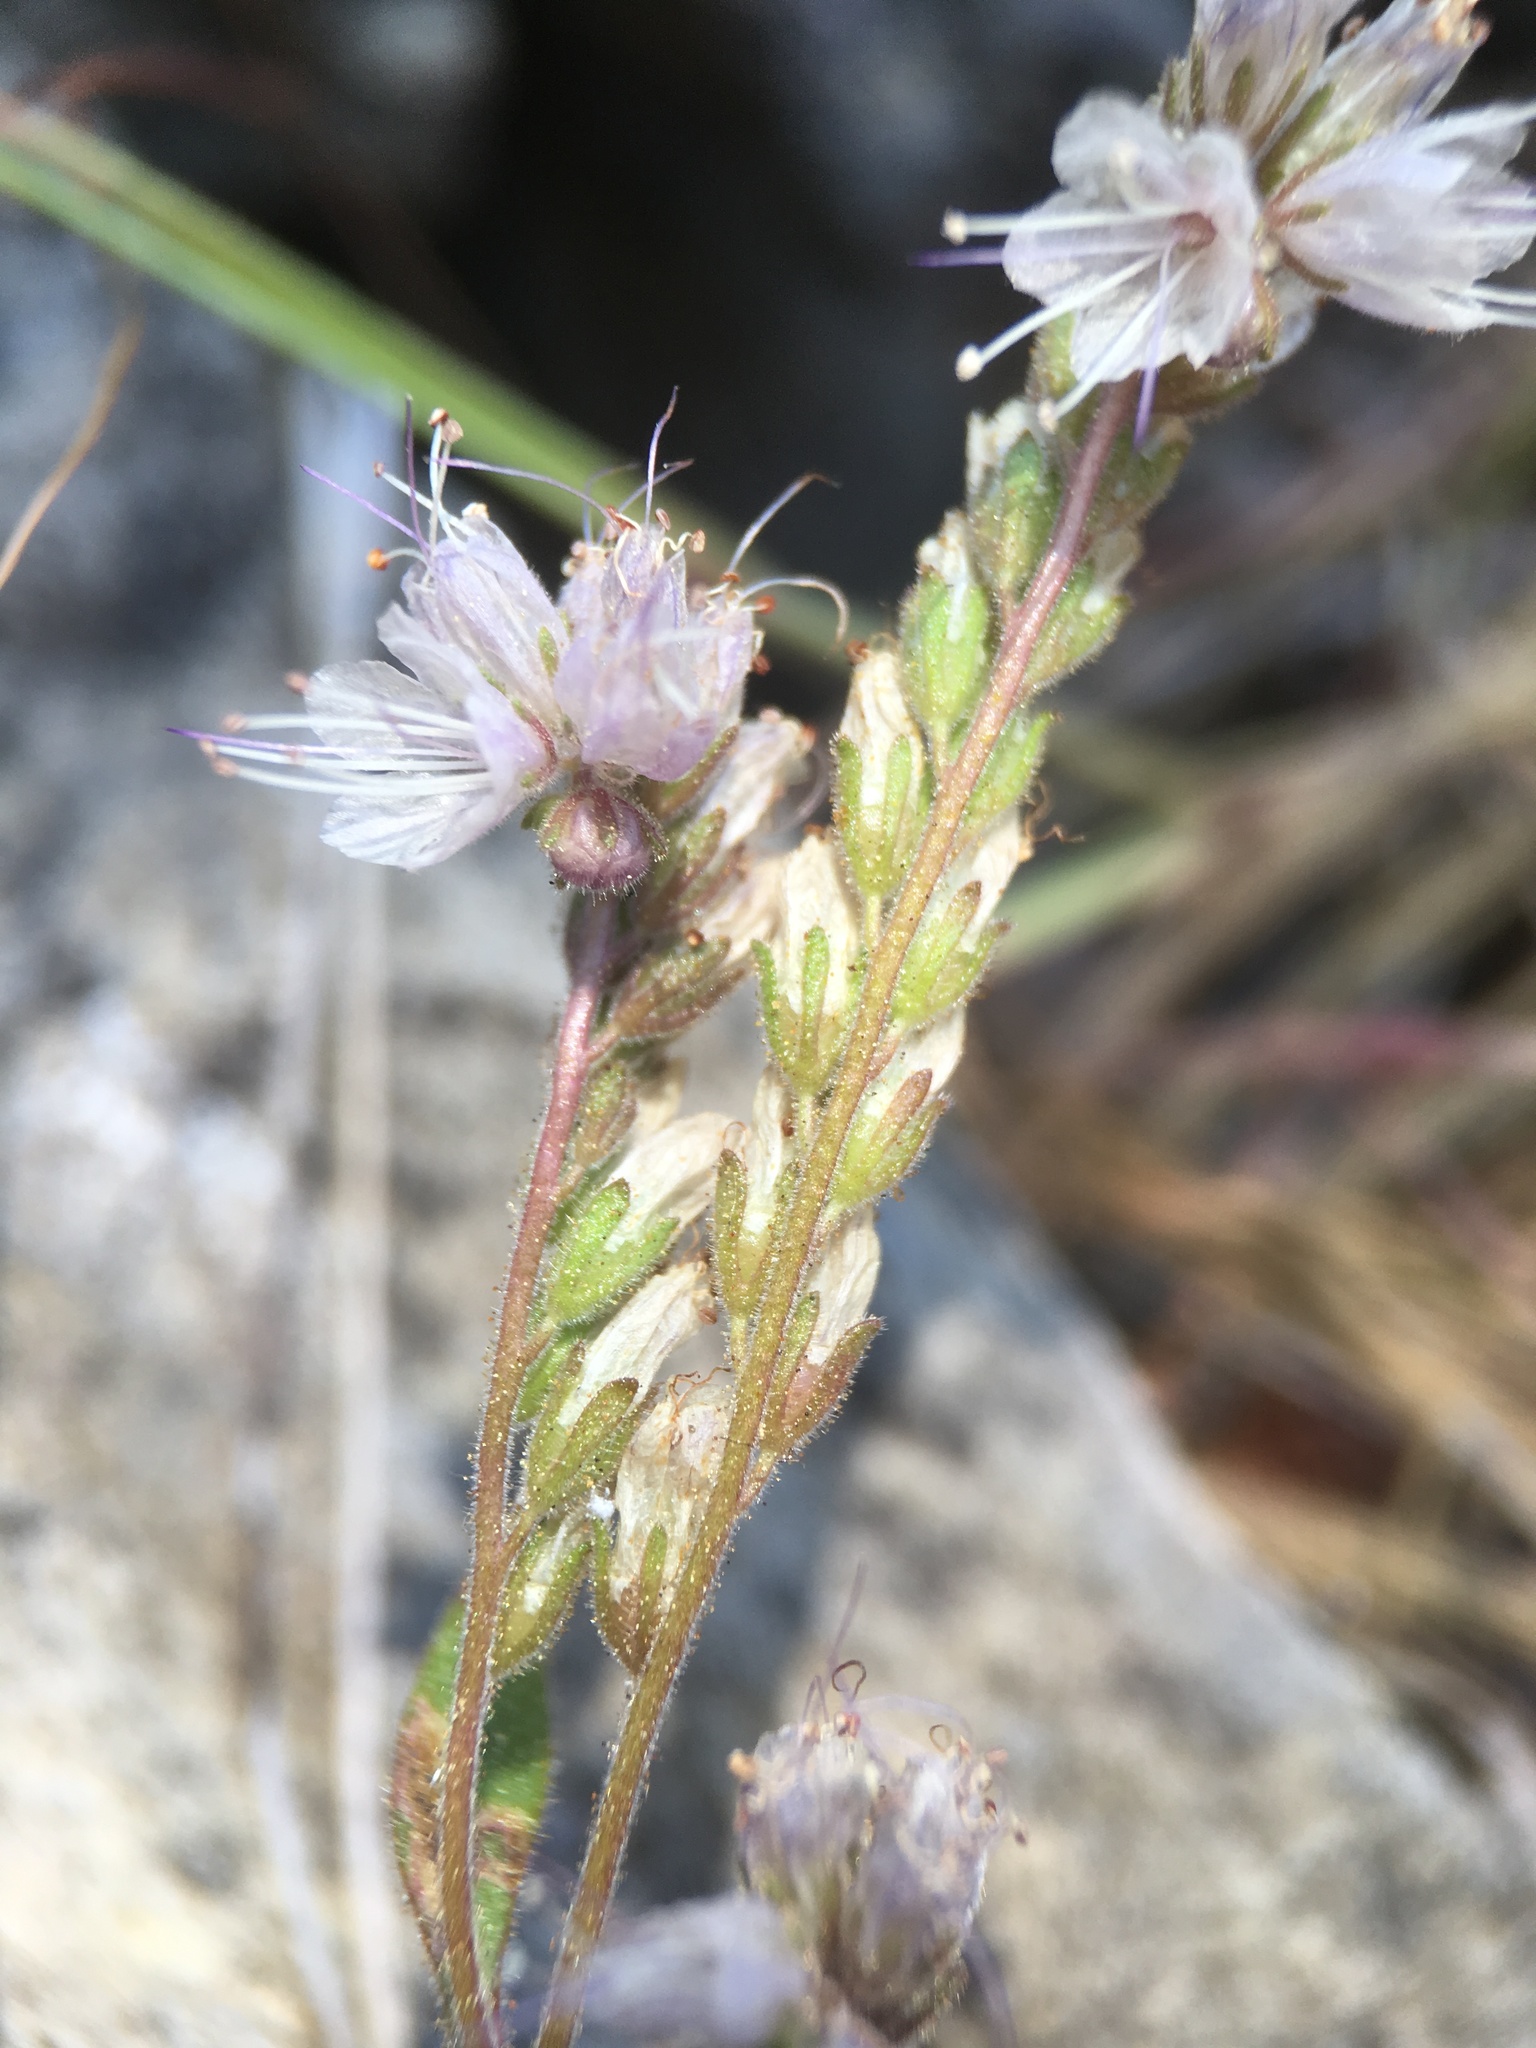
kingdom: Plantae
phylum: Tracheophyta
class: Magnoliopsida
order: Boraginales
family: Hydrophyllaceae
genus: Phacelia
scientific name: Phacelia stebbinsii
